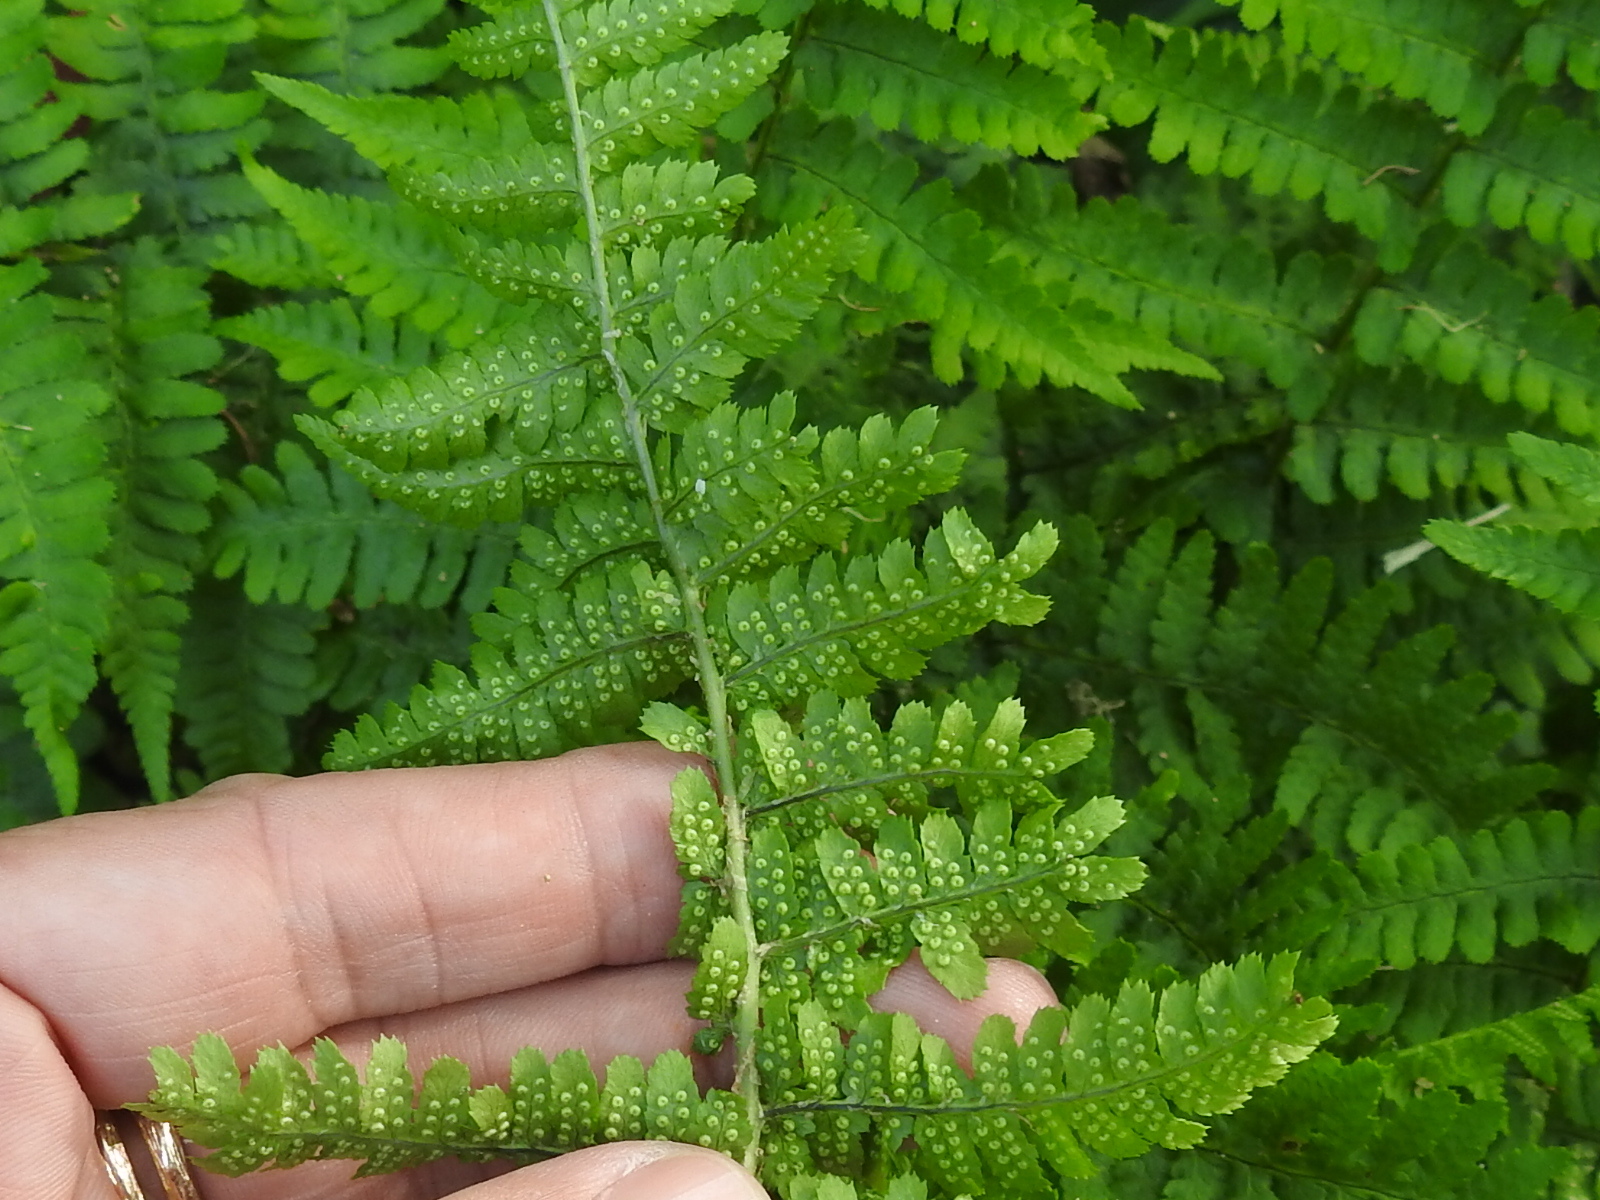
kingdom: Plantae
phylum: Tracheophyta
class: Polypodiopsida
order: Polypodiales
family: Dryopteridaceae
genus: Dryopteris
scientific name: Dryopteris arguta
